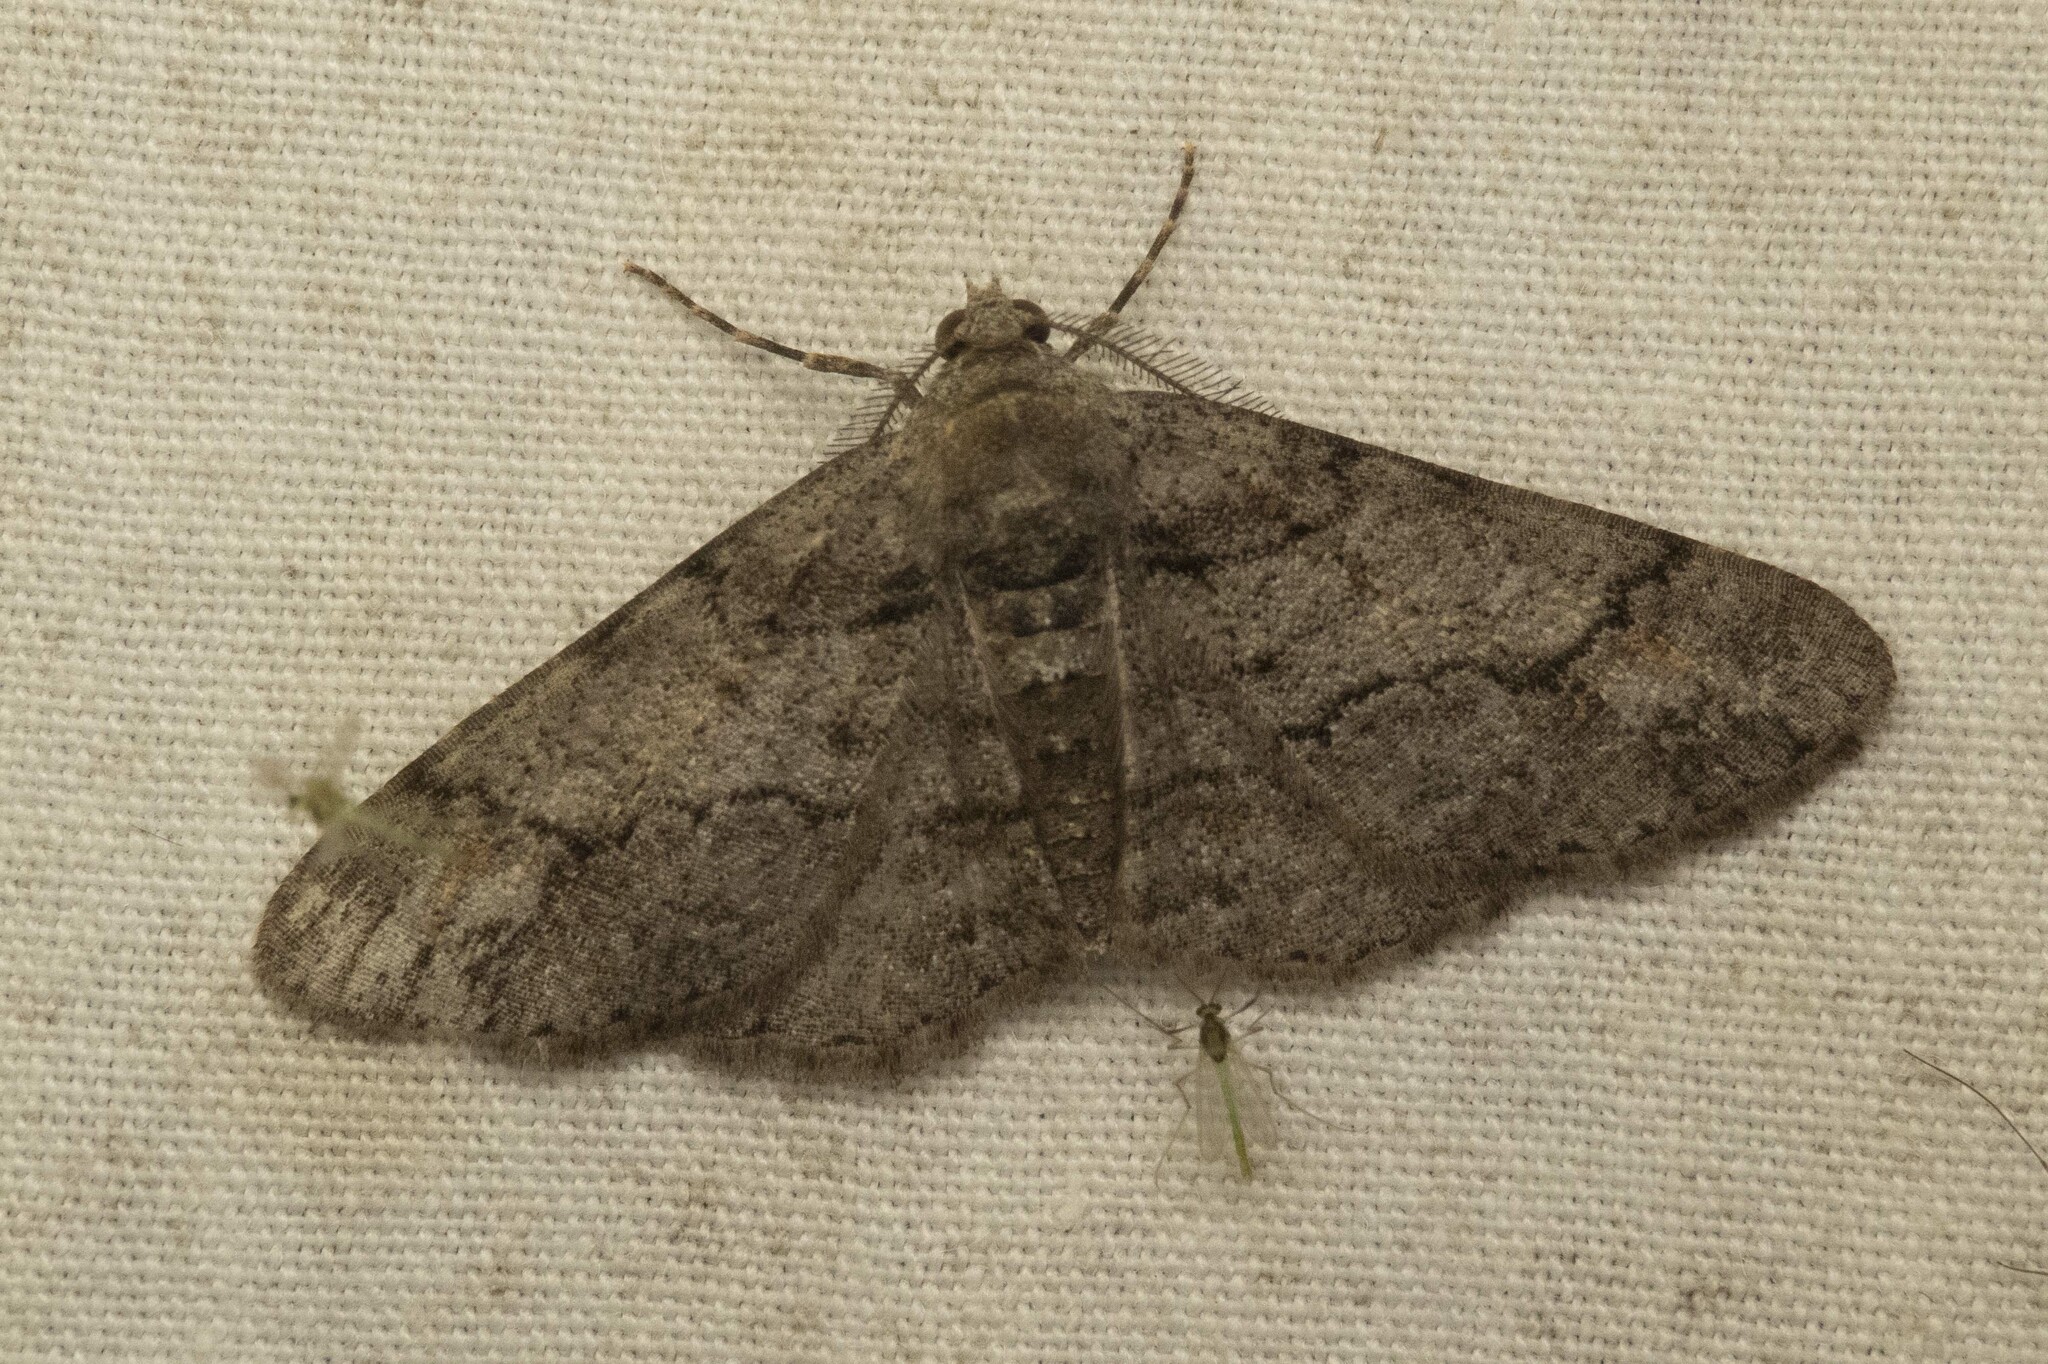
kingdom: Animalia
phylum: Arthropoda
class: Insecta
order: Lepidoptera
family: Geometridae
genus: Cleora
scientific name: Cleora projecta
